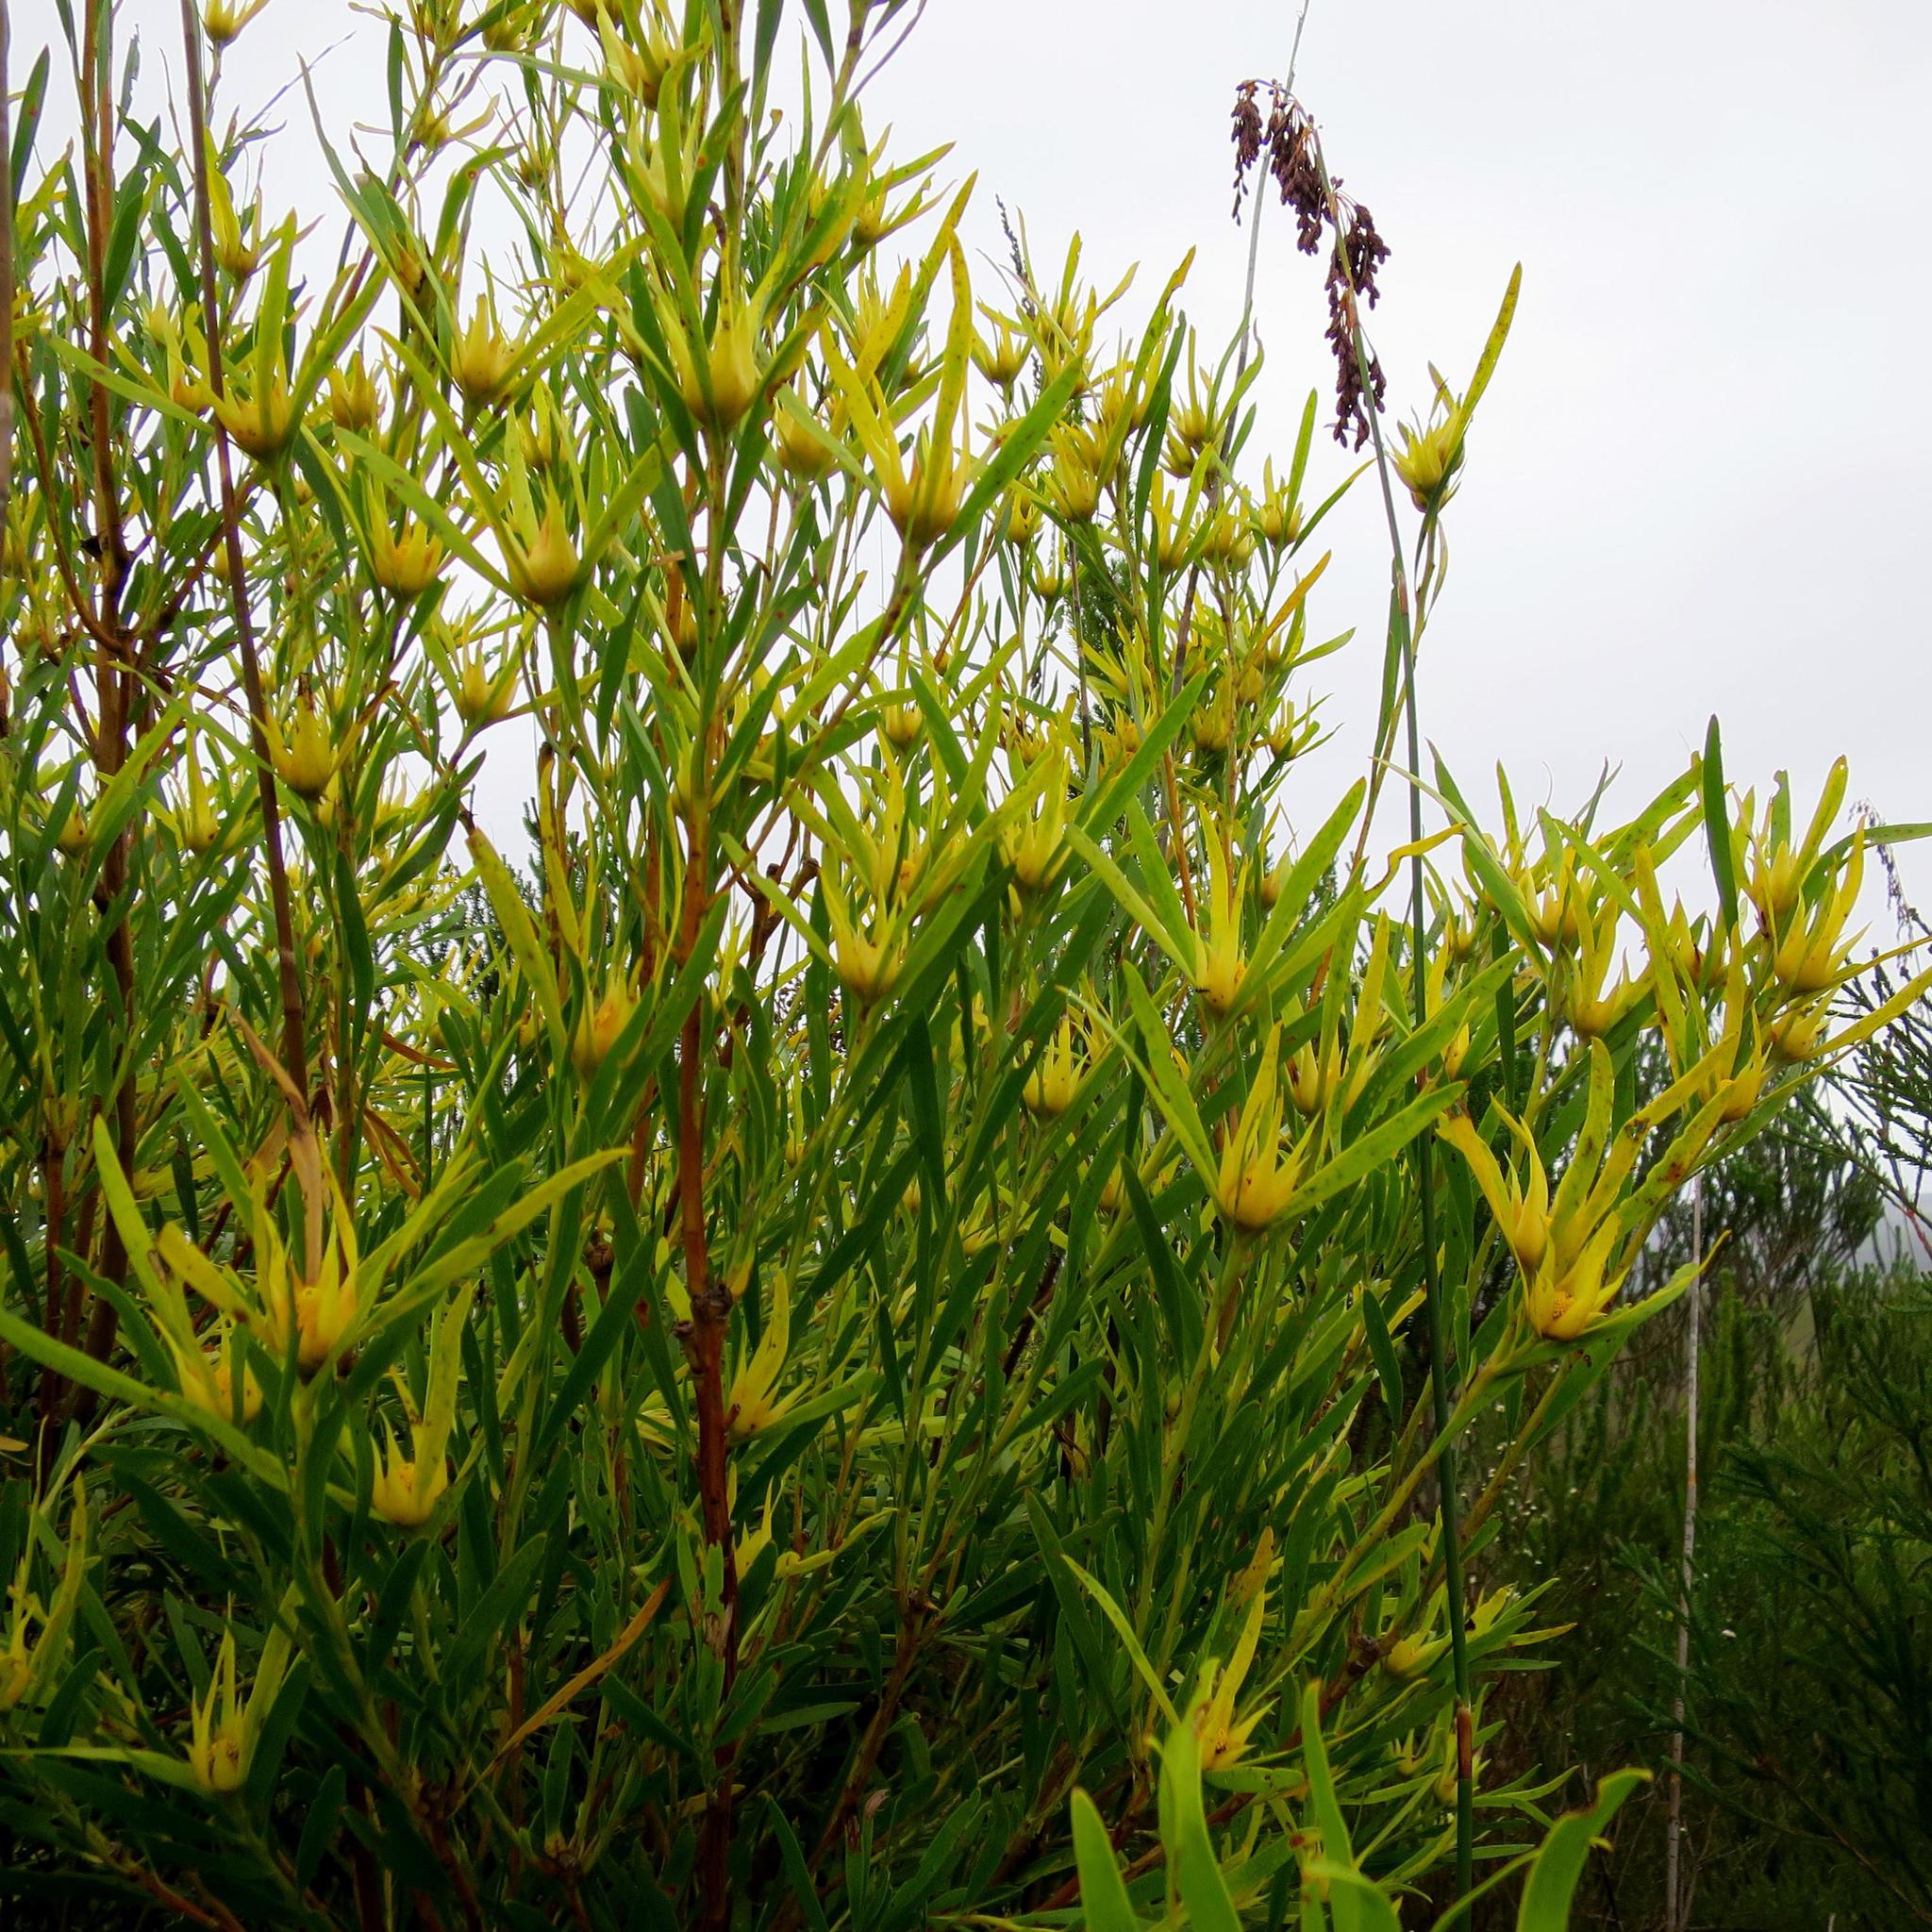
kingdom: Plantae
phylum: Tracheophyta
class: Magnoliopsida
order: Proteales
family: Proteaceae
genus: Leucadendron
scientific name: Leucadendron eucalyptifolium
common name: Gum-leaved conebush
